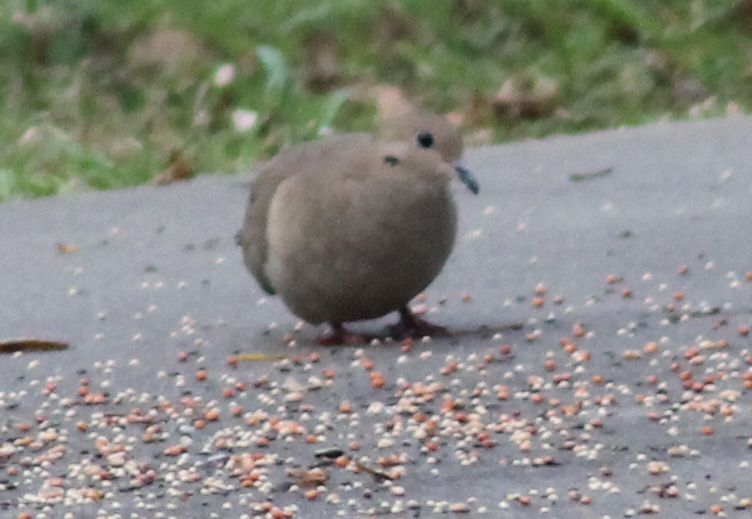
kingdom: Animalia
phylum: Chordata
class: Aves
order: Columbiformes
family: Columbidae
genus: Zenaida
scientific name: Zenaida macroura
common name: Mourning dove
